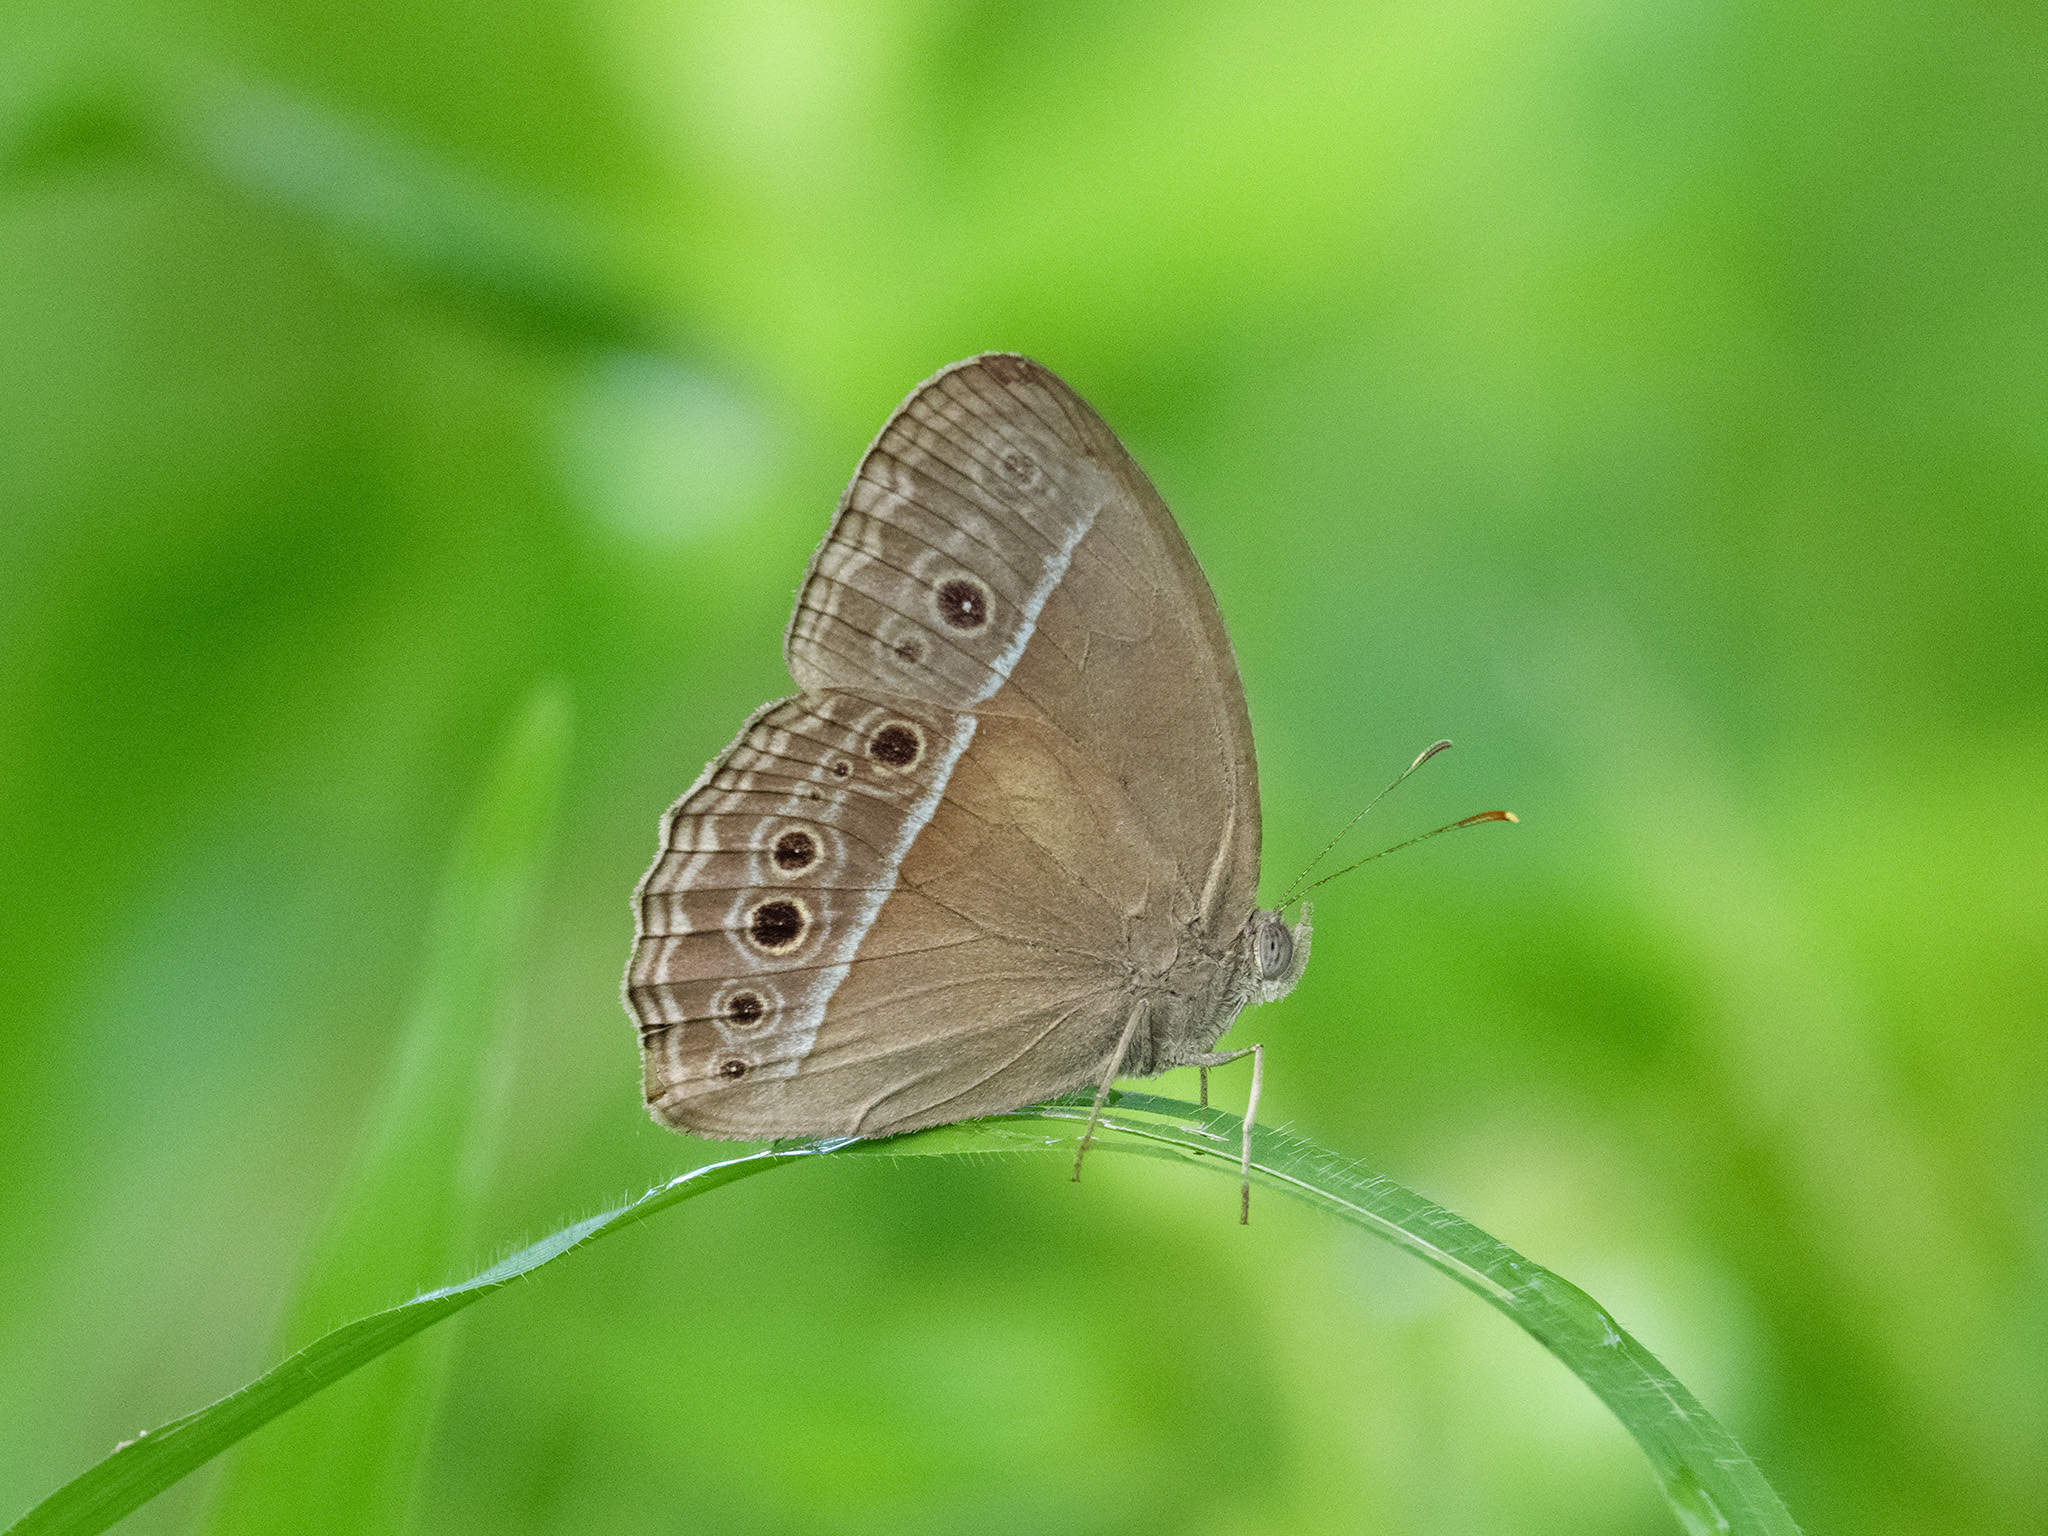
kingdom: Animalia
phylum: Arthropoda
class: Insecta
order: Lepidoptera
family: Nymphalidae
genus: Mycalesis
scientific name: Mycalesis mineus
